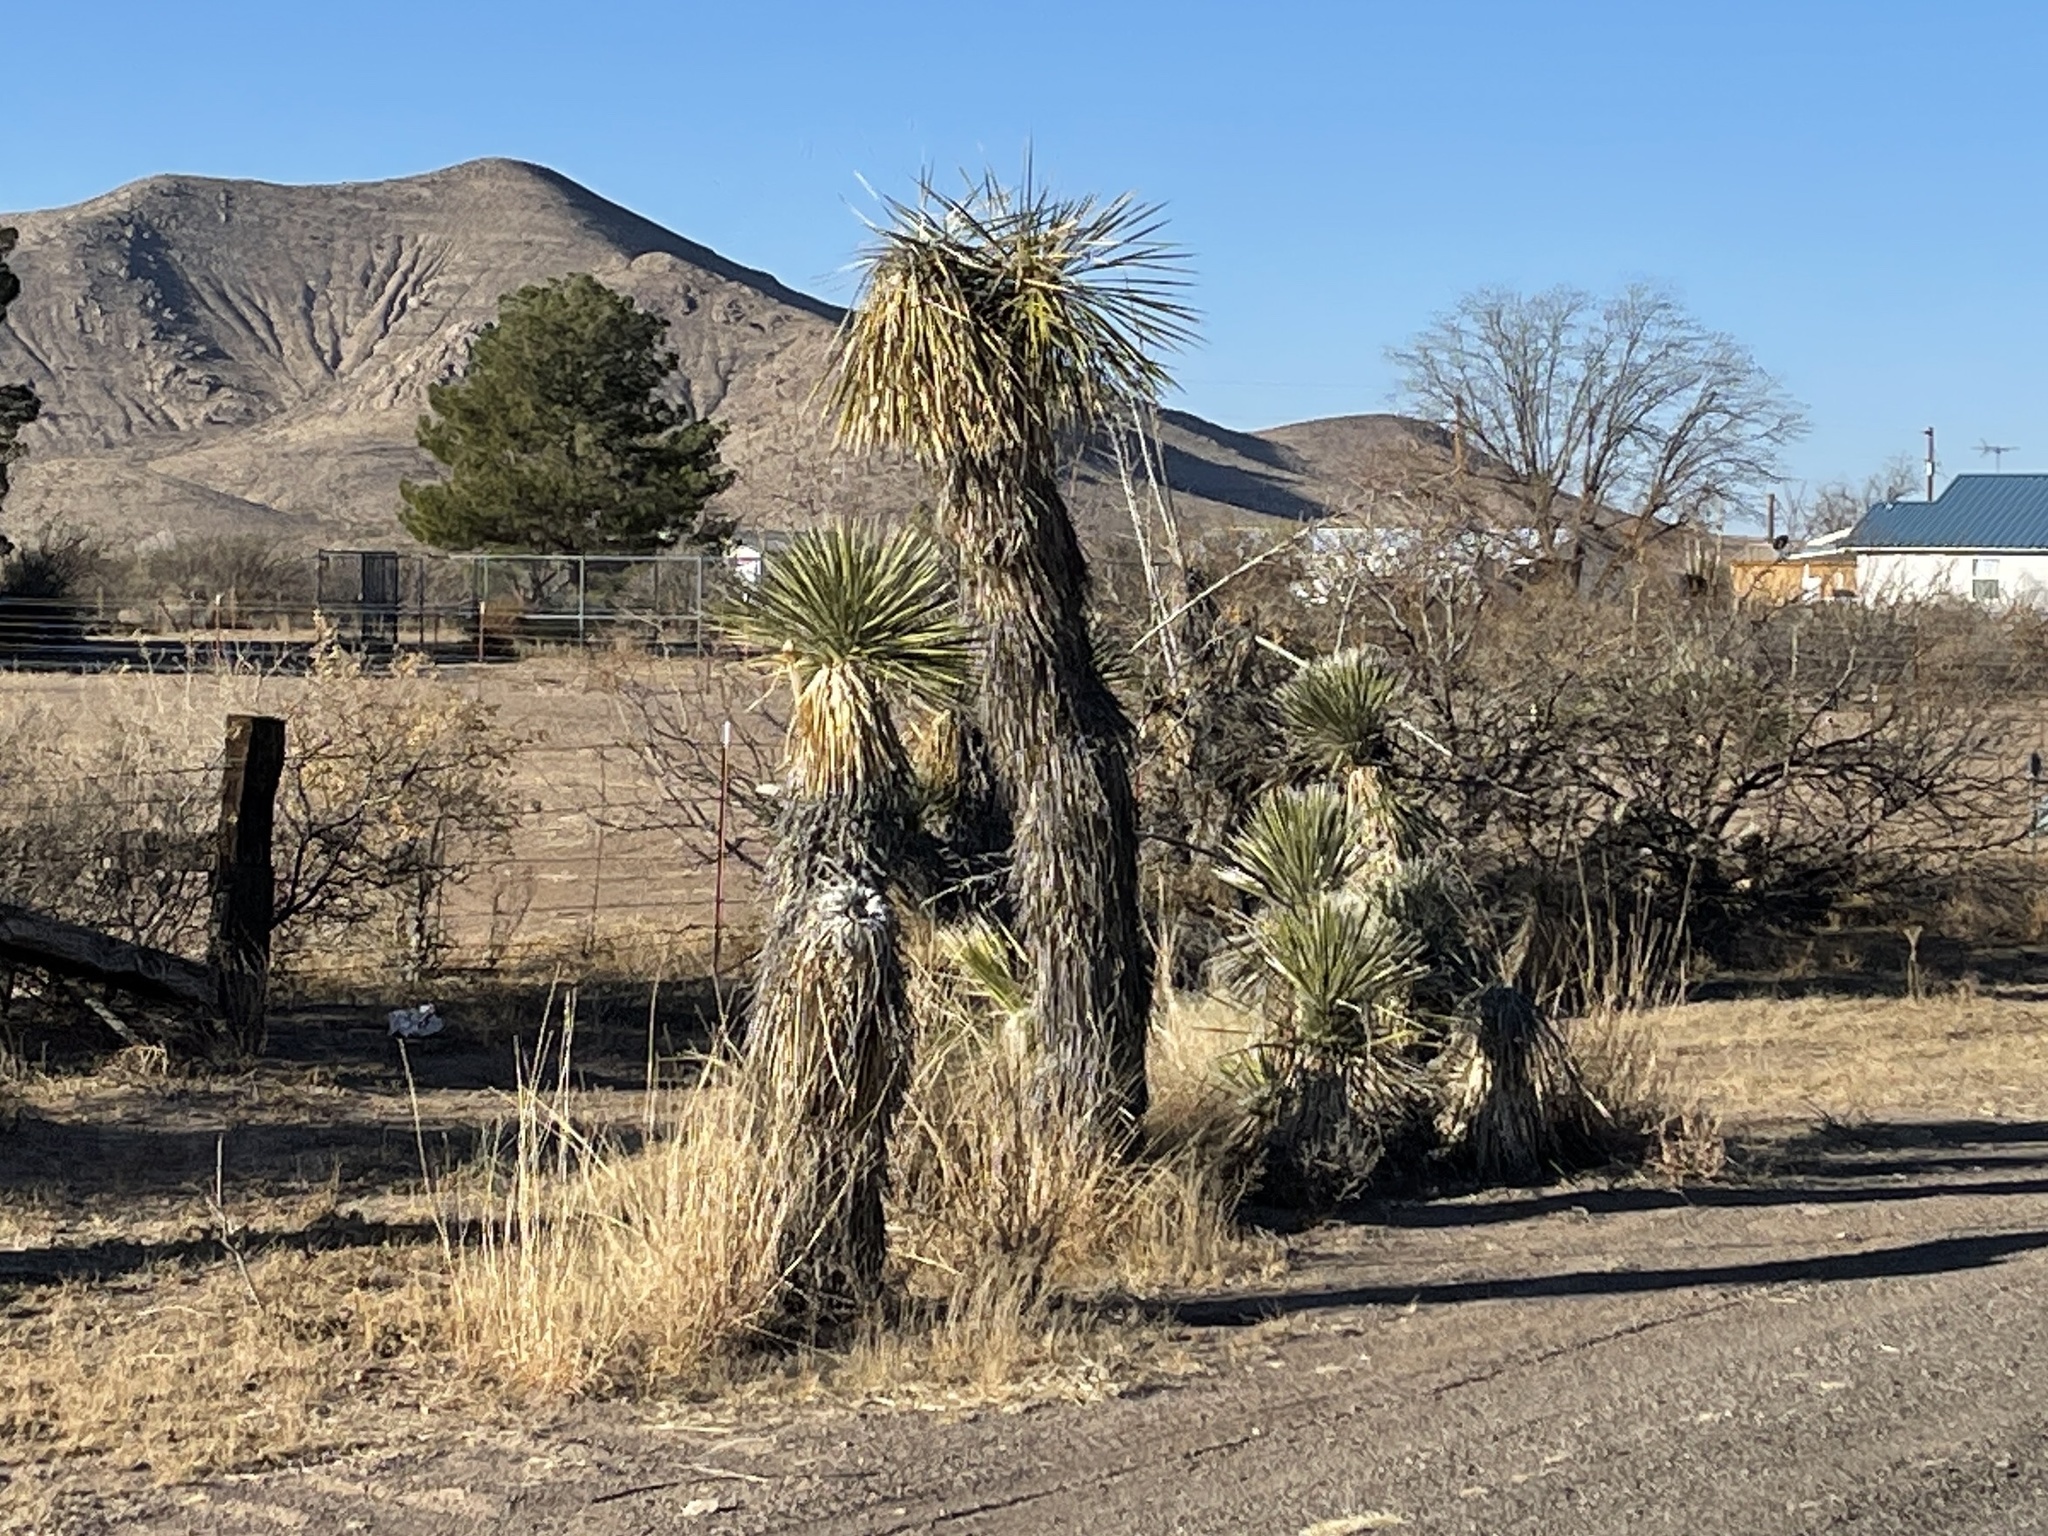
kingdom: Plantae
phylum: Tracheophyta
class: Liliopsida
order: Asparagales
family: Asparagaceae
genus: Yucca
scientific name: Yucca elata
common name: Palmella
